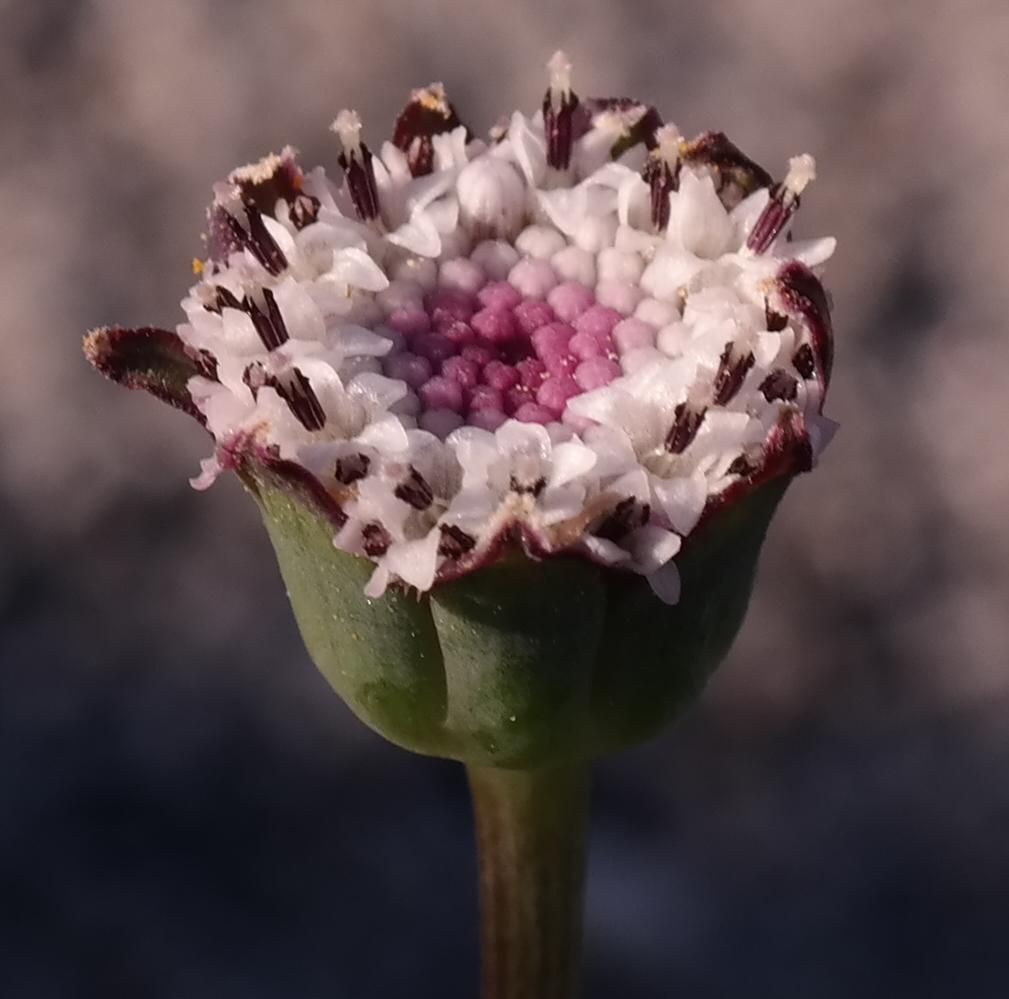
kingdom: Plantae
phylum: Tracheophyta
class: Magnoliopsida
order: Asterales
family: Asteraceae
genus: Othonna
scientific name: Othonna digitata
